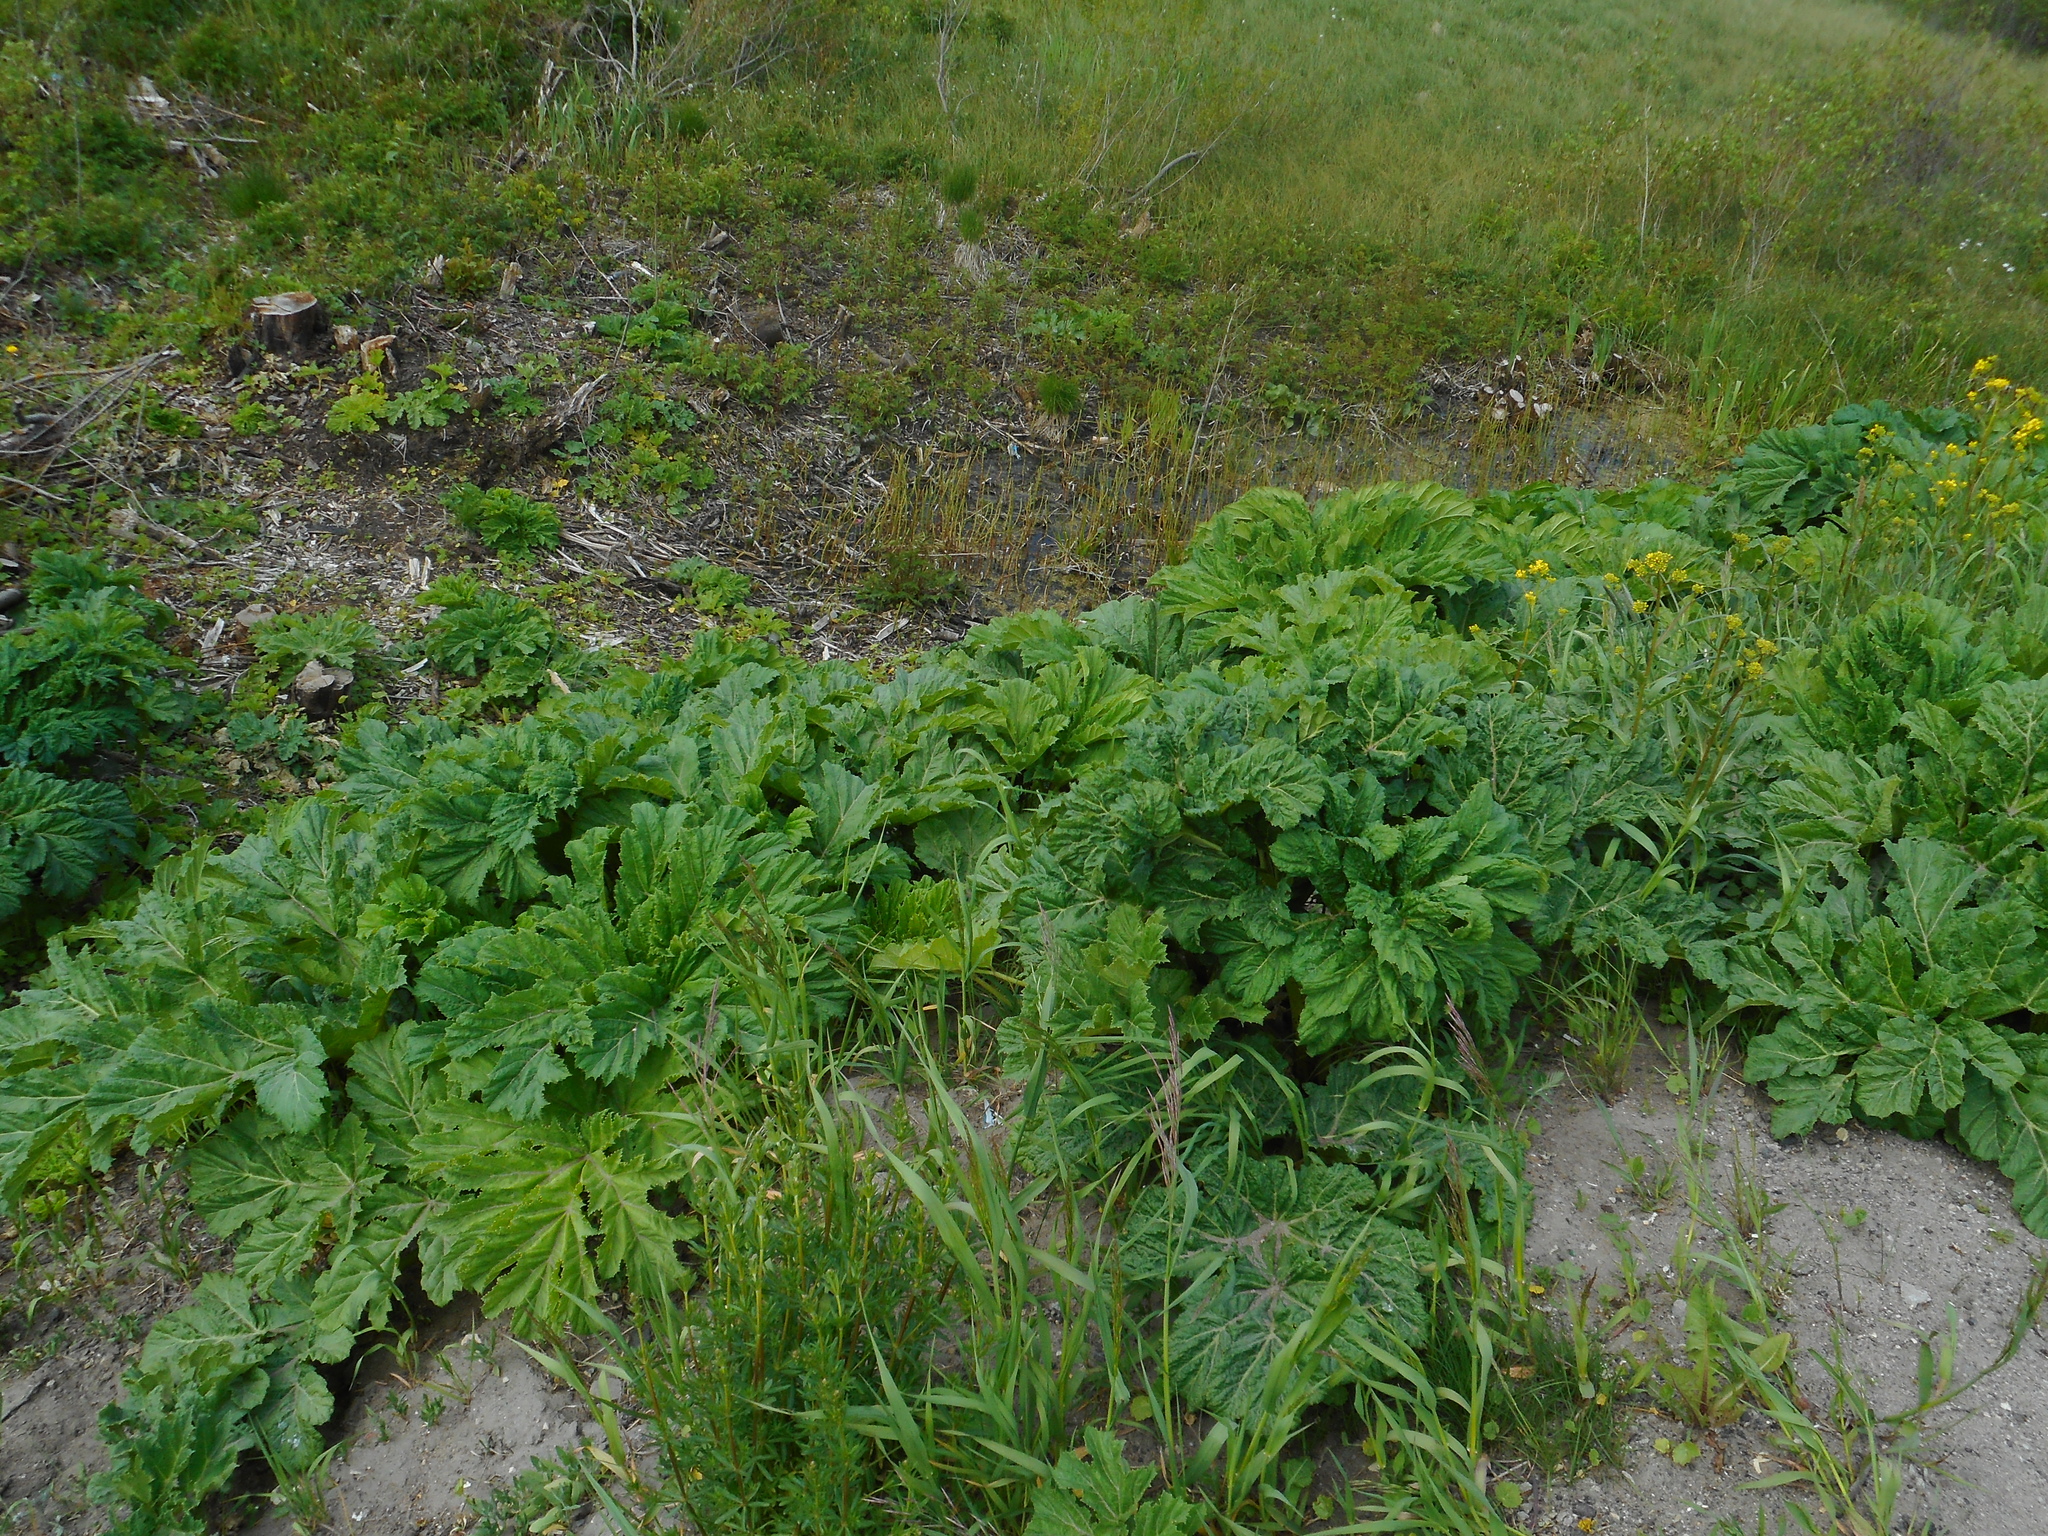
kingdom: Plantae
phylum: Tracheophyta
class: Magnoliopsida
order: Apiales
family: Apiaceae
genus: Heracleum
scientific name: Heracleum sosnowskyi
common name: Sosnowsky's hogweed
